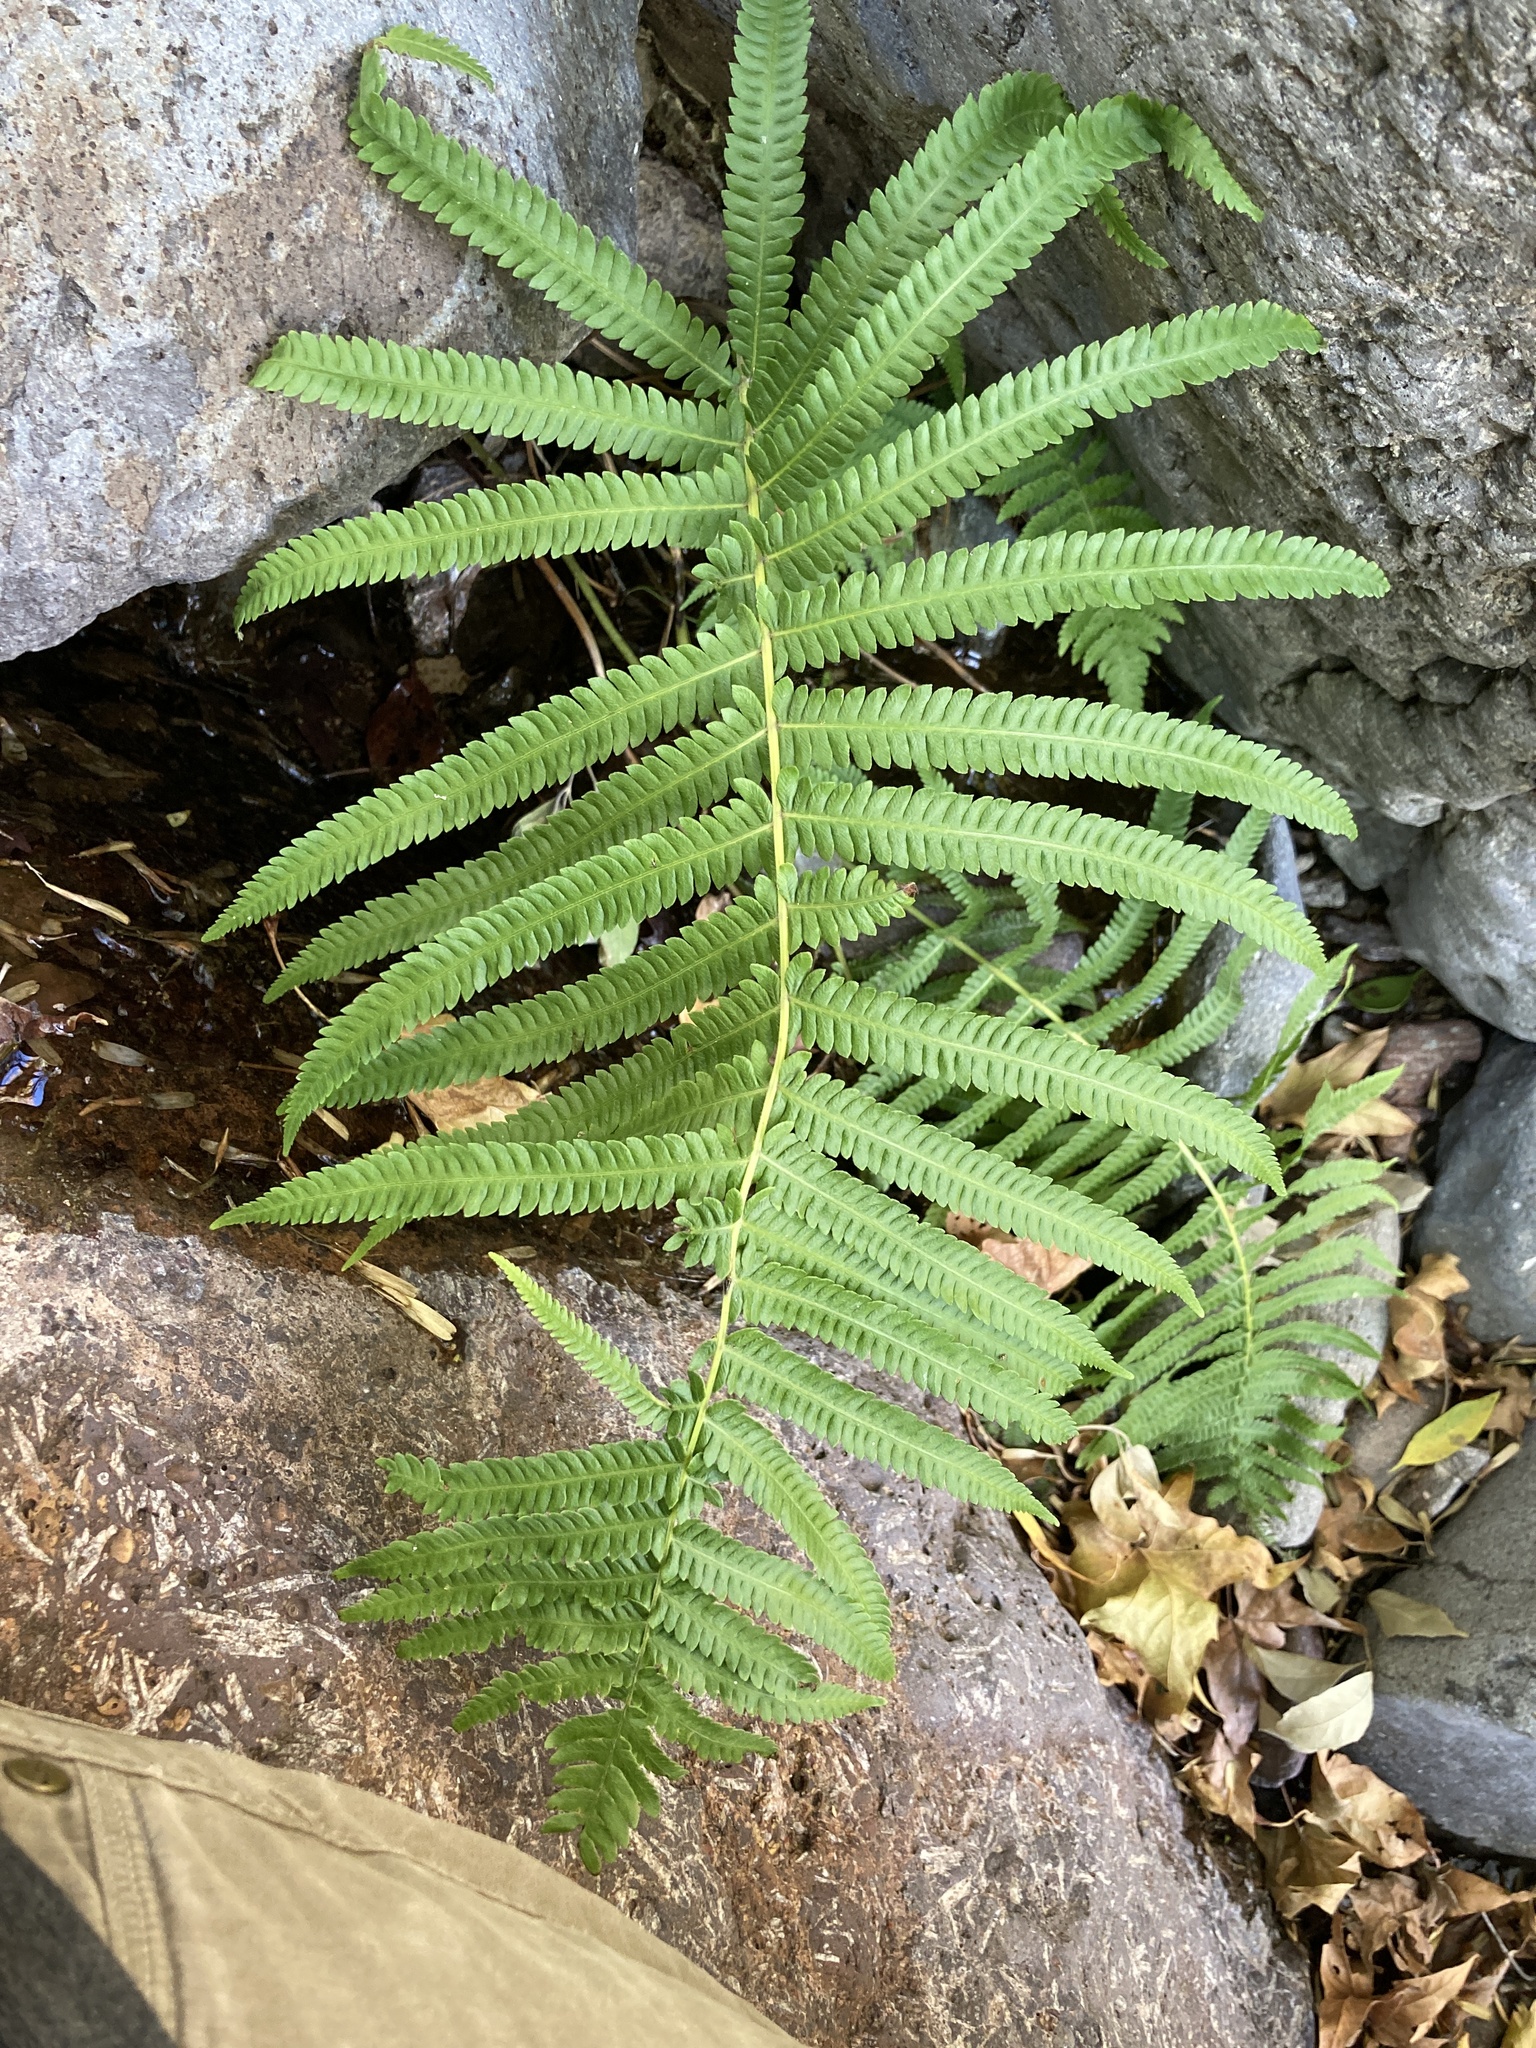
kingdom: Plantae
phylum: Tracheophyta
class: Polypodiopsida
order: Polypodiales
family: Thelypteridaceae
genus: Pelazoneuron
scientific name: Pelazoneuron puberulum
